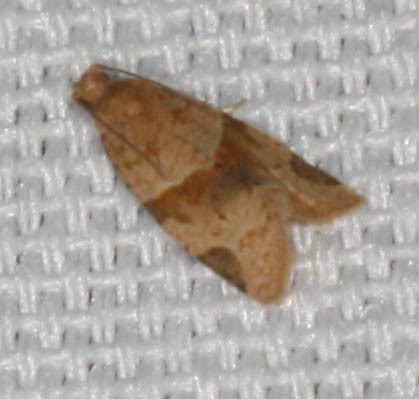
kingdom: Animalia
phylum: Arthropoda
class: Insecta
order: Lepidoptera
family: Tortricidae
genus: Clepsis
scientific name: Clepsis peritana
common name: Garden tortrix
